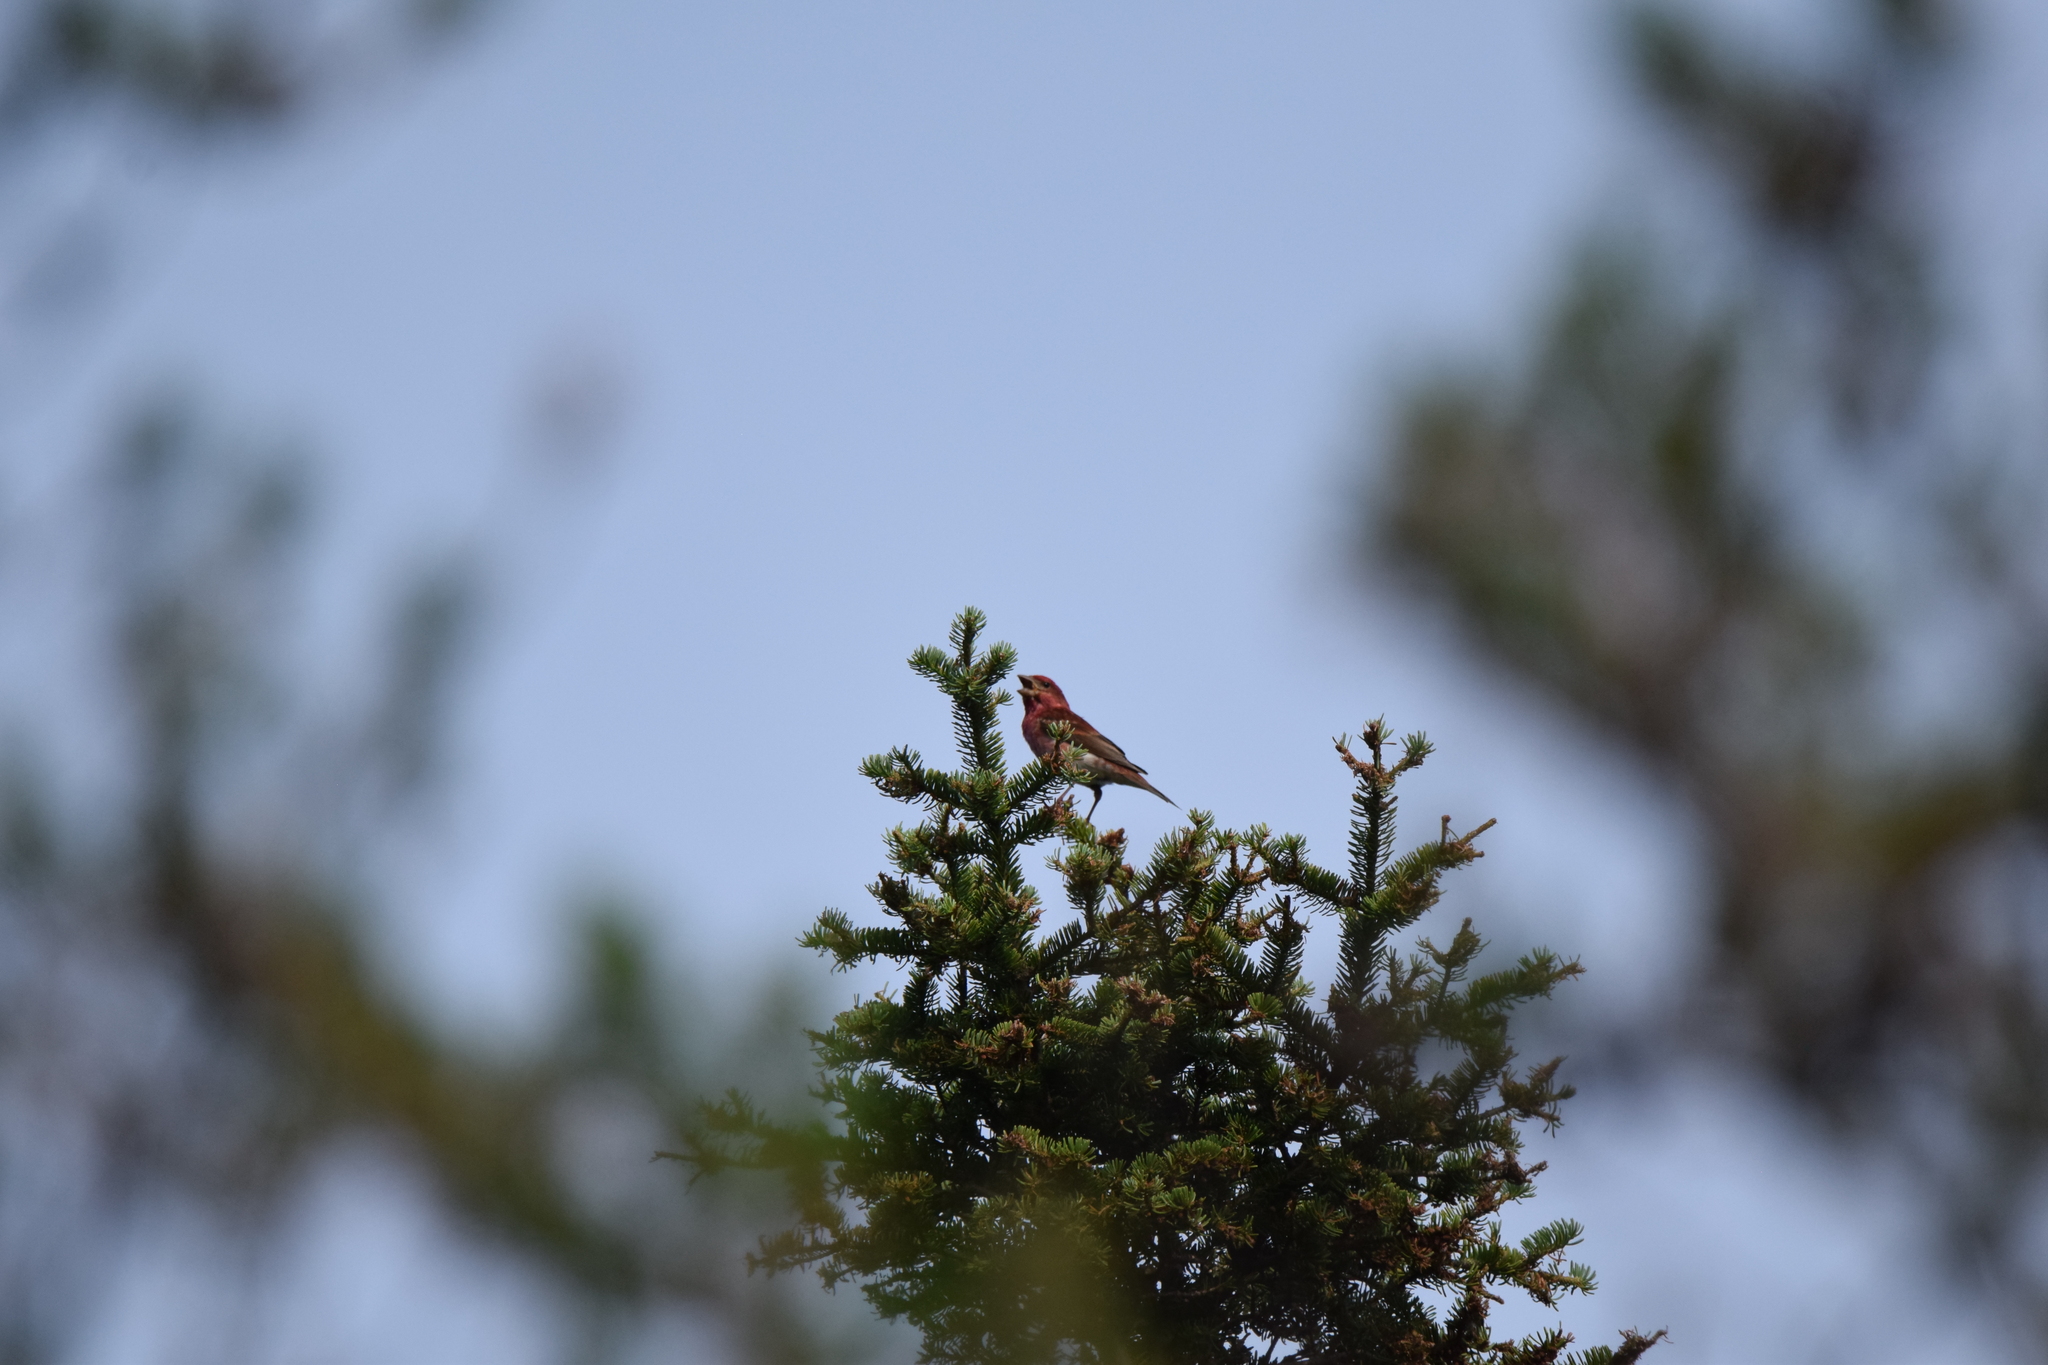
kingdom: Animalia
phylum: Chordata
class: Aves
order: Passeriformes
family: Fringillidae
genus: Haemorhous
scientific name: Haemorhous purpureus
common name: Purple finch
